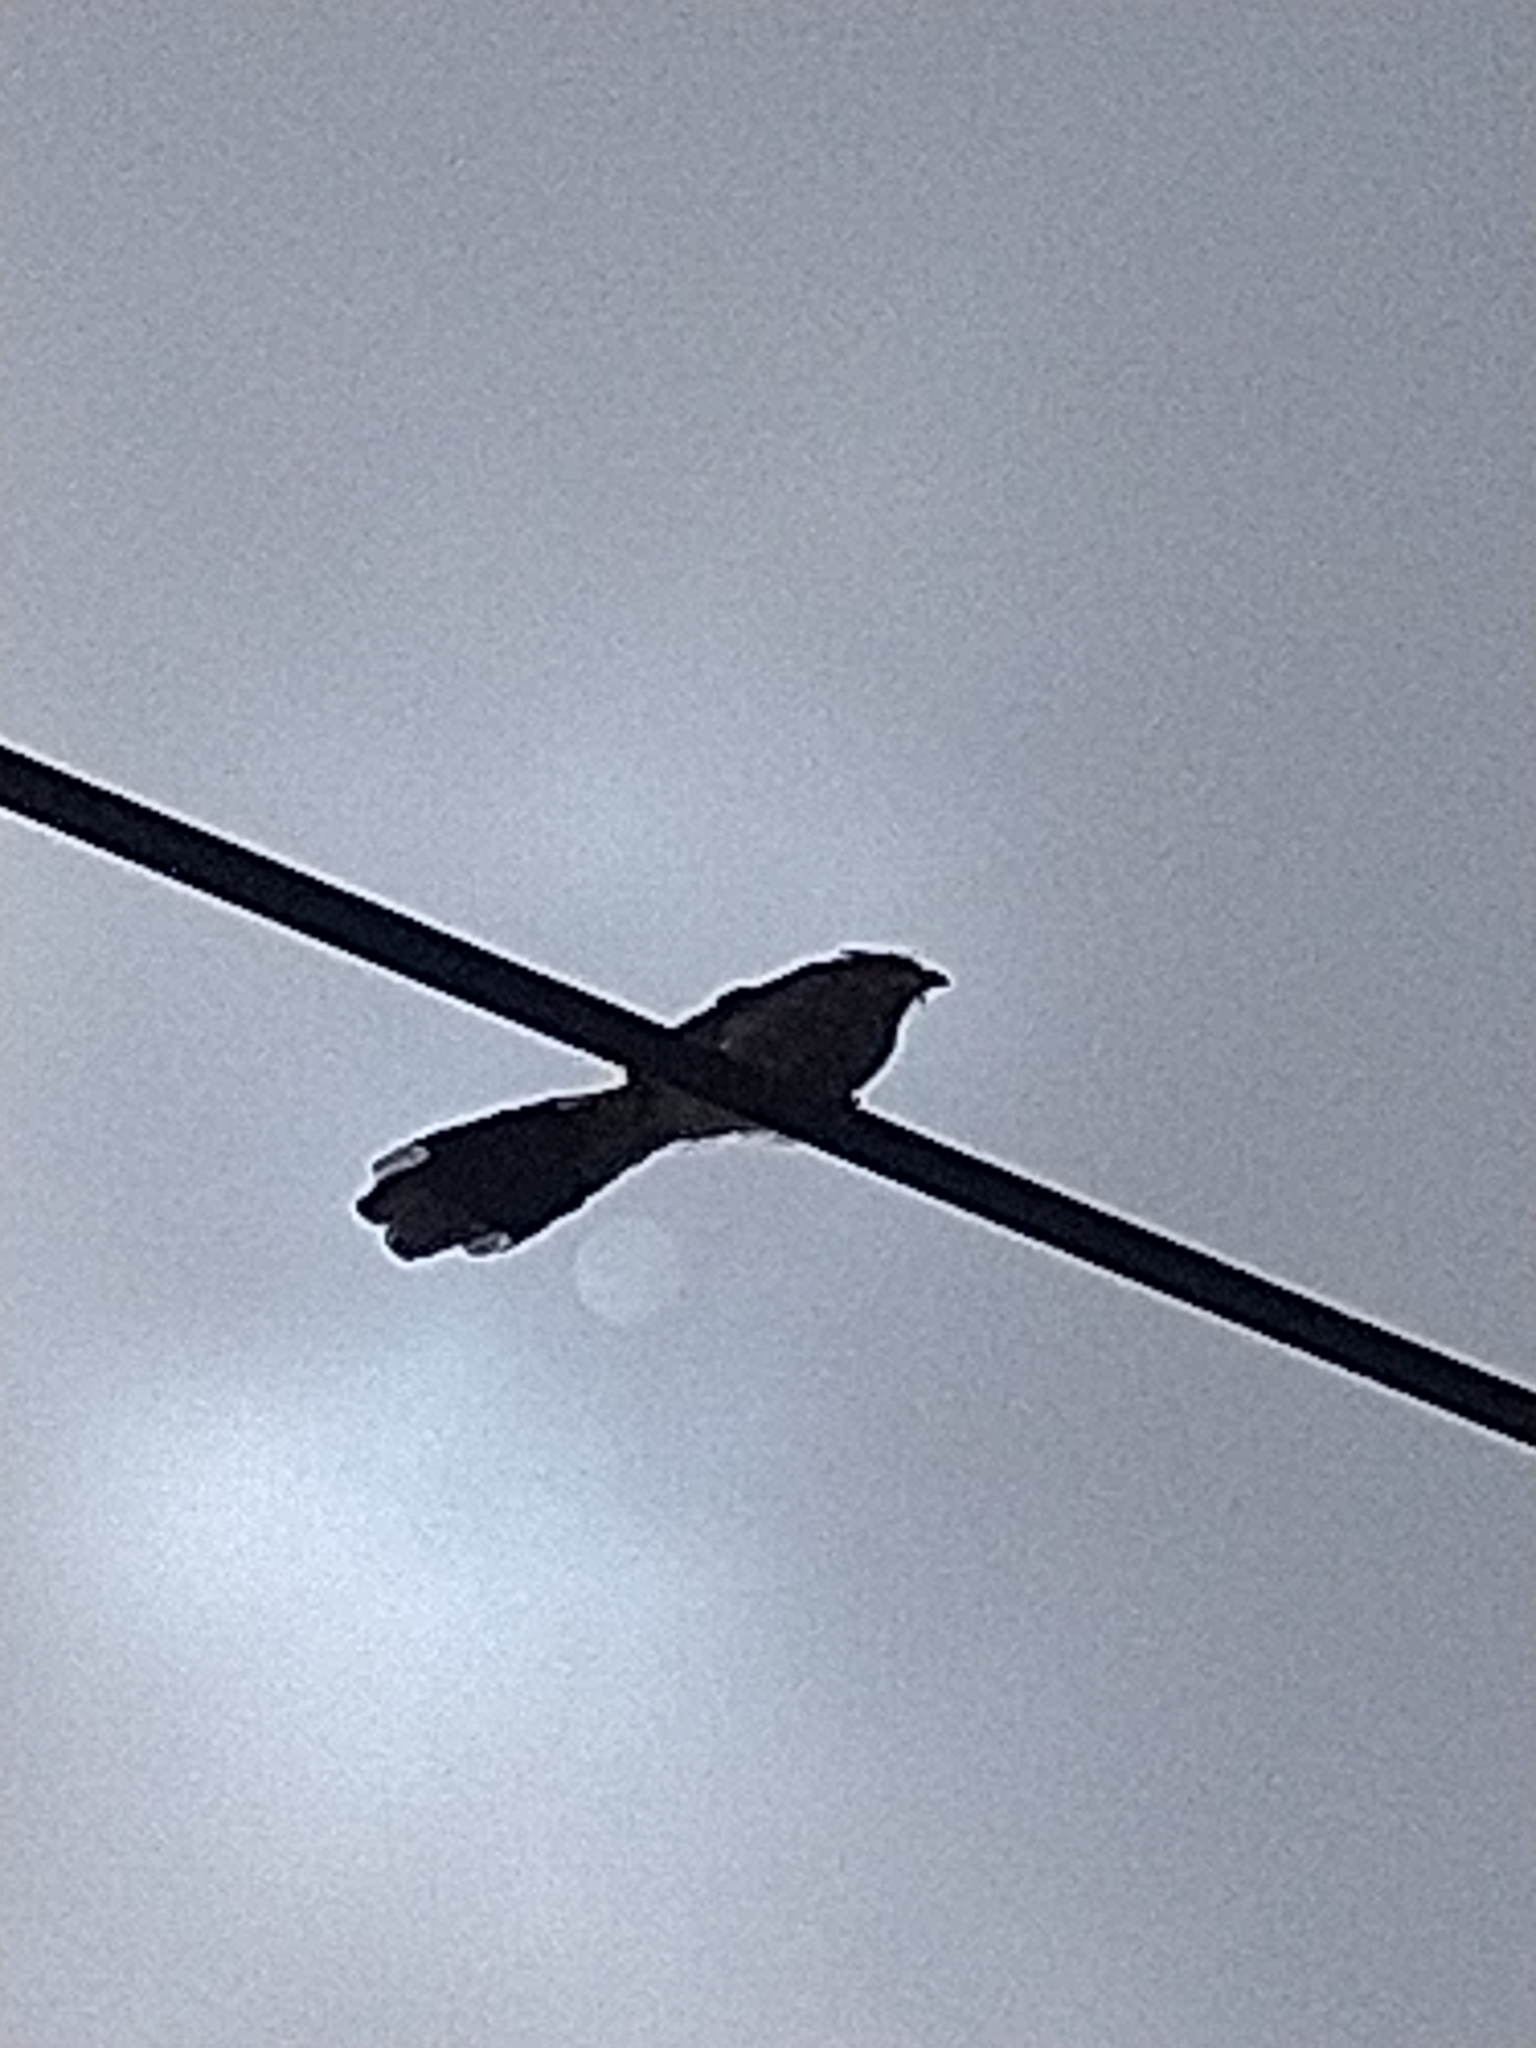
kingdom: Animalia
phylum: Chordata
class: Aves
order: Cuculiformes
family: Cuculidae
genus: Guira
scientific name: Guira guira
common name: Guira cuckoo
